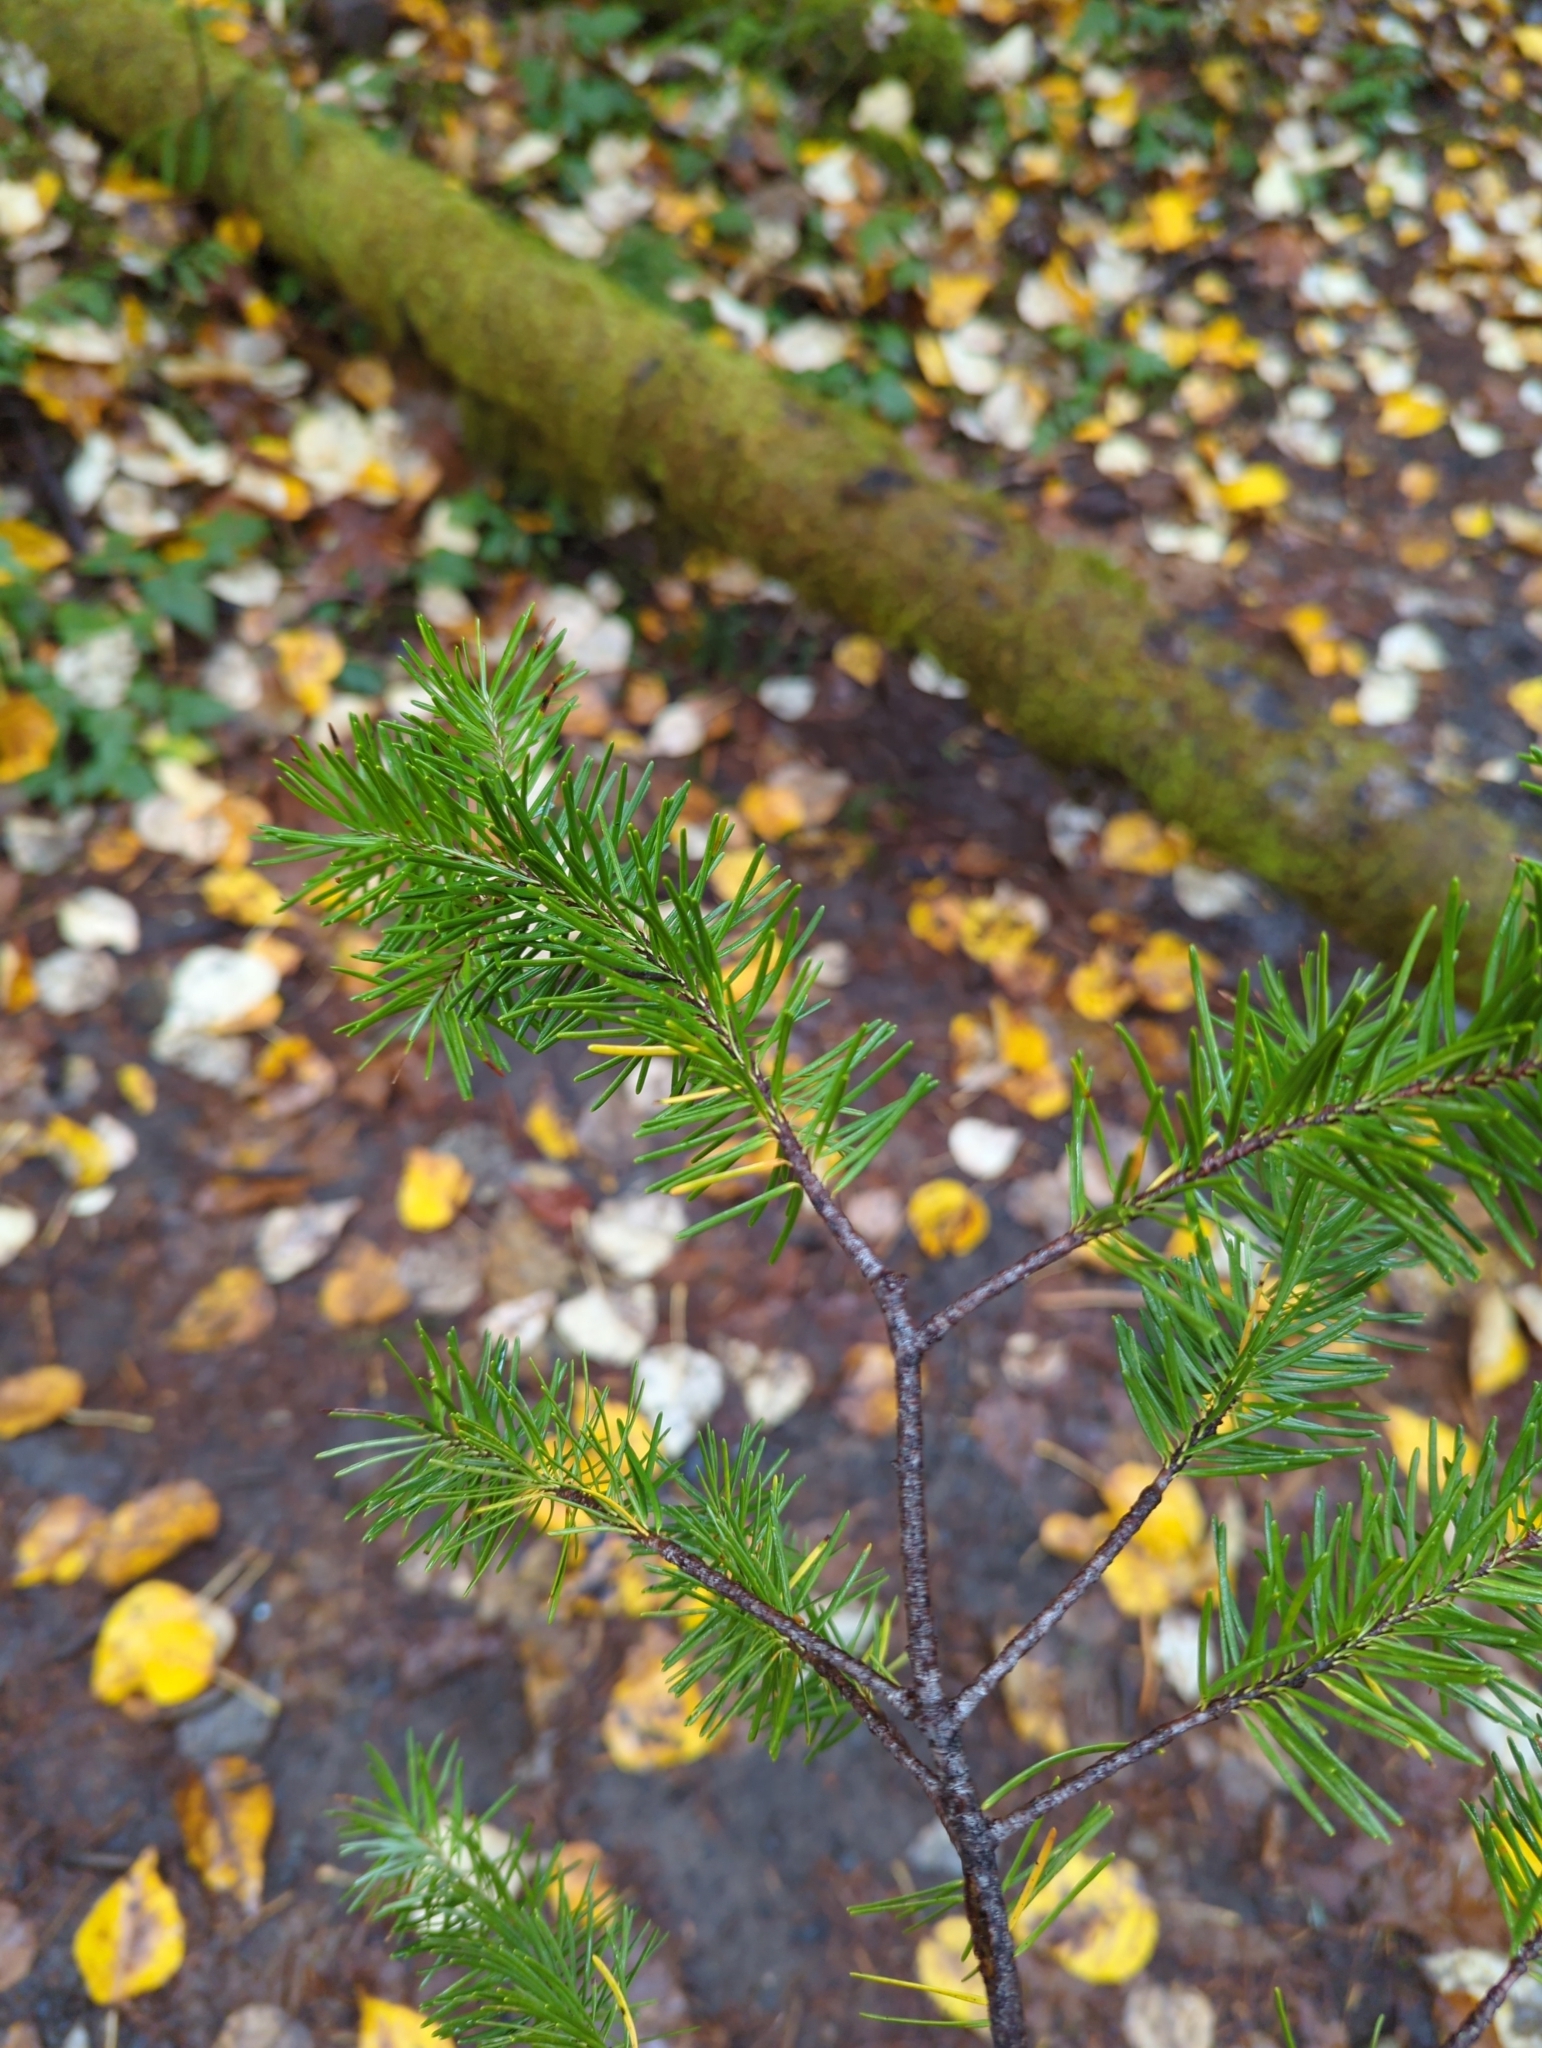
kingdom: Plantae
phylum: Tracheophyta
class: Pinopsida
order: Pinales
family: Pinaceae
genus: Pseudotsuga
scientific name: Pseudotsuga menziesii
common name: Douglas fir
